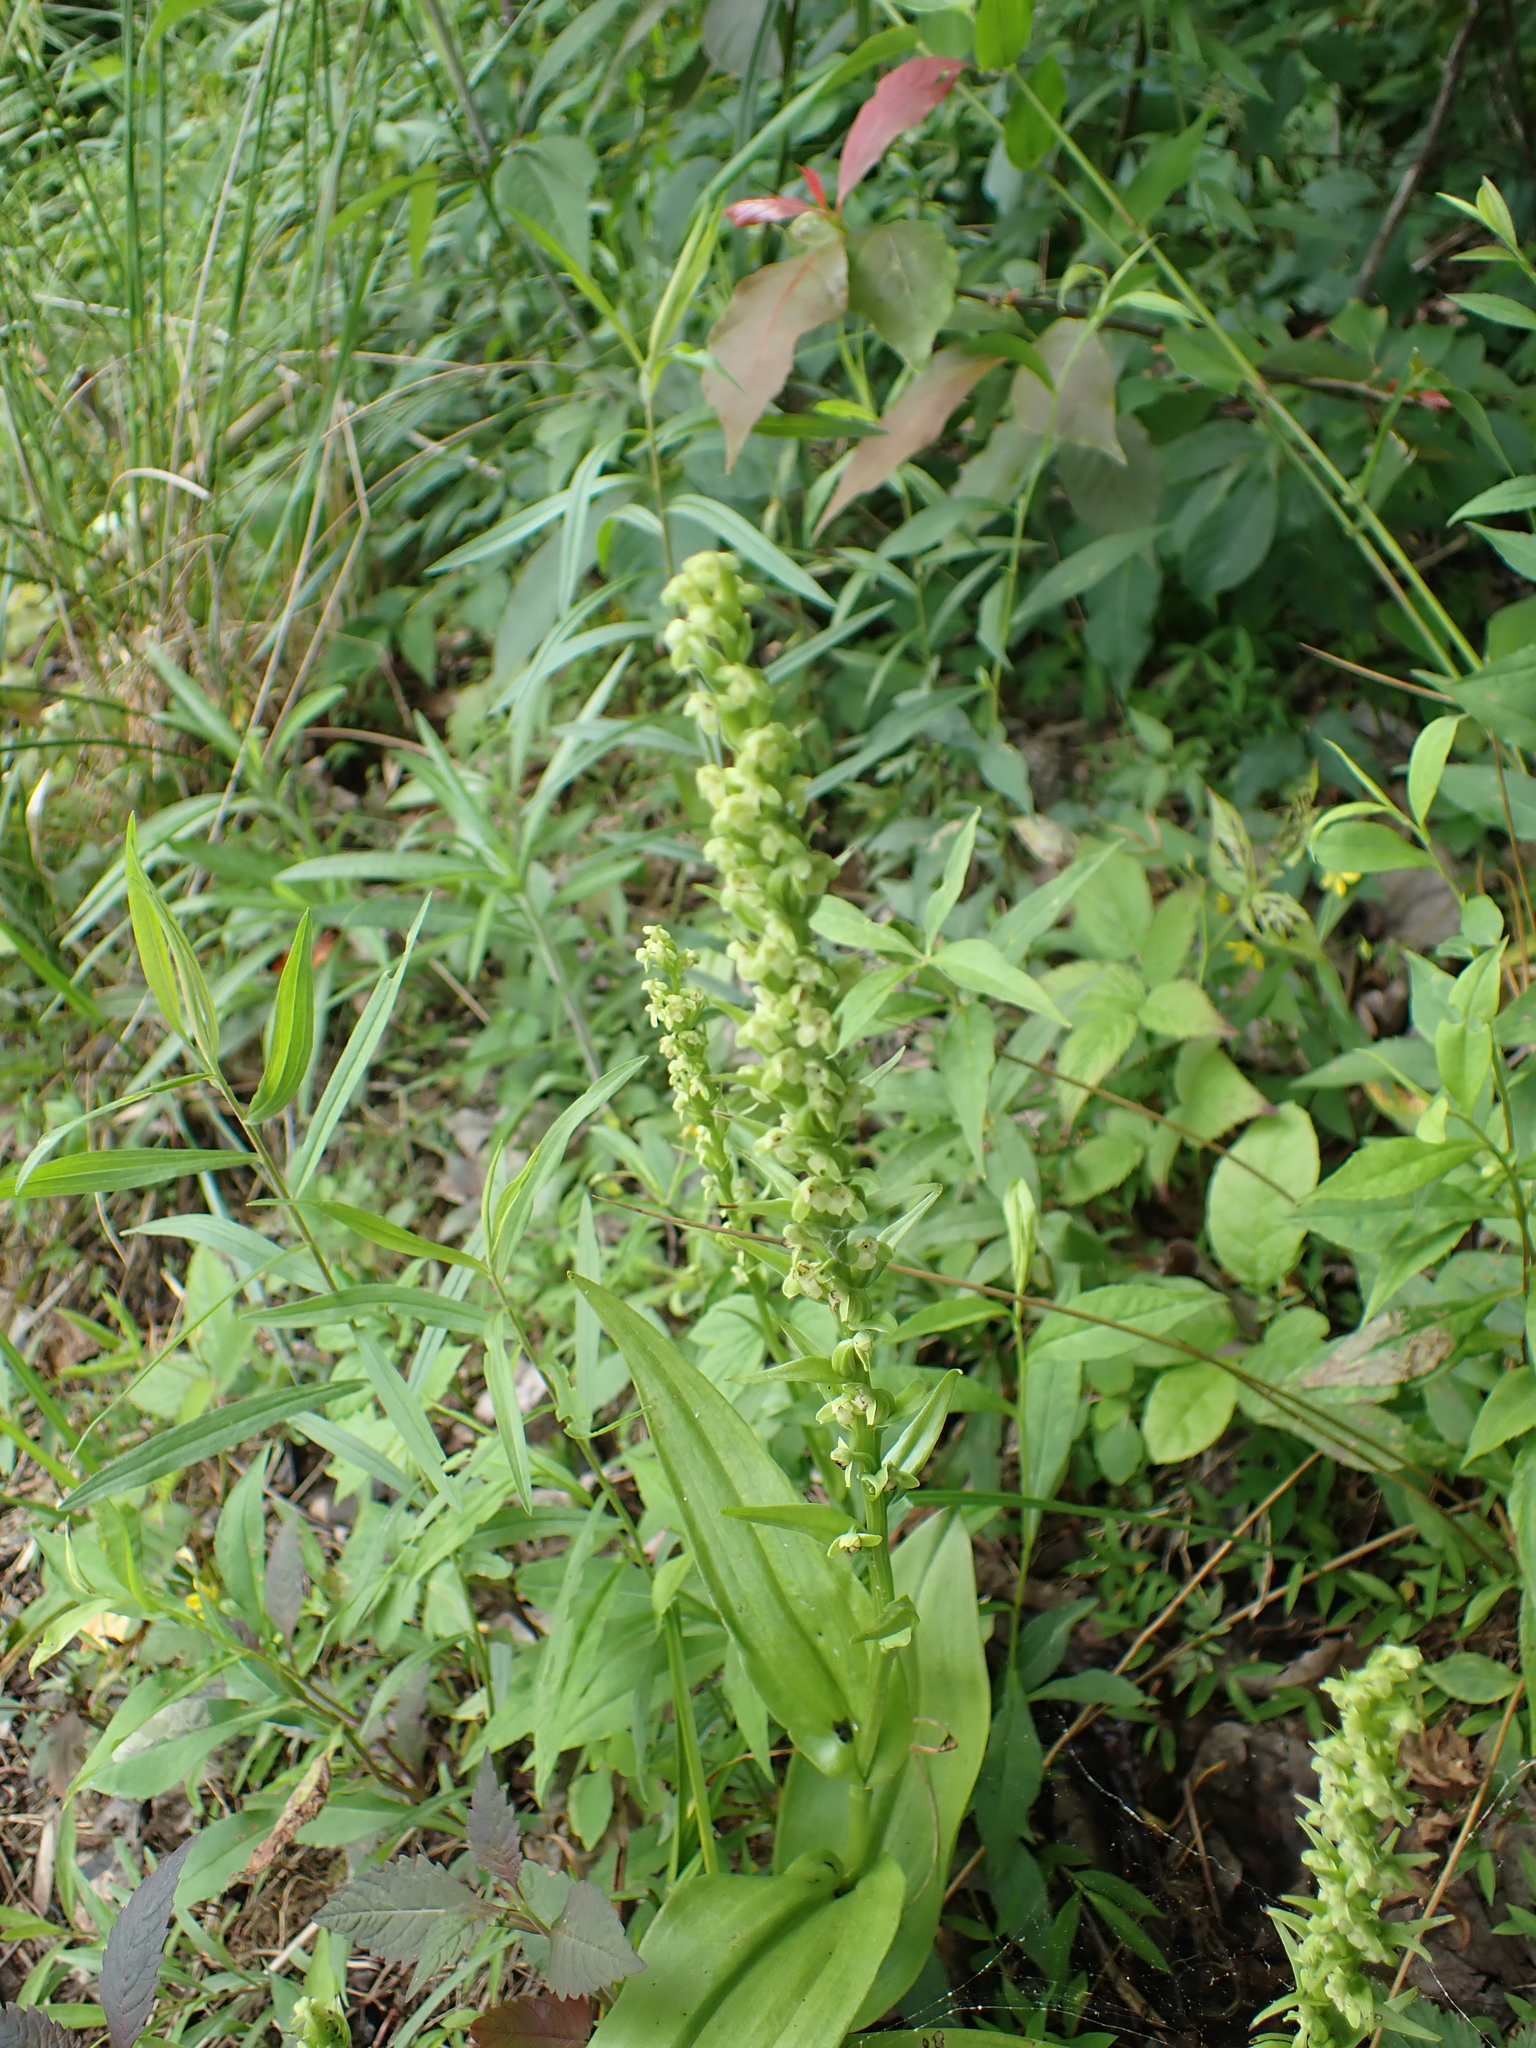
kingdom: Plantae
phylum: Tracheophyta
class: Liliopsida
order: Asparagales
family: Orchidaceae
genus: Platanthera
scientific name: Platanthera flava
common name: Gypsy-spikes
